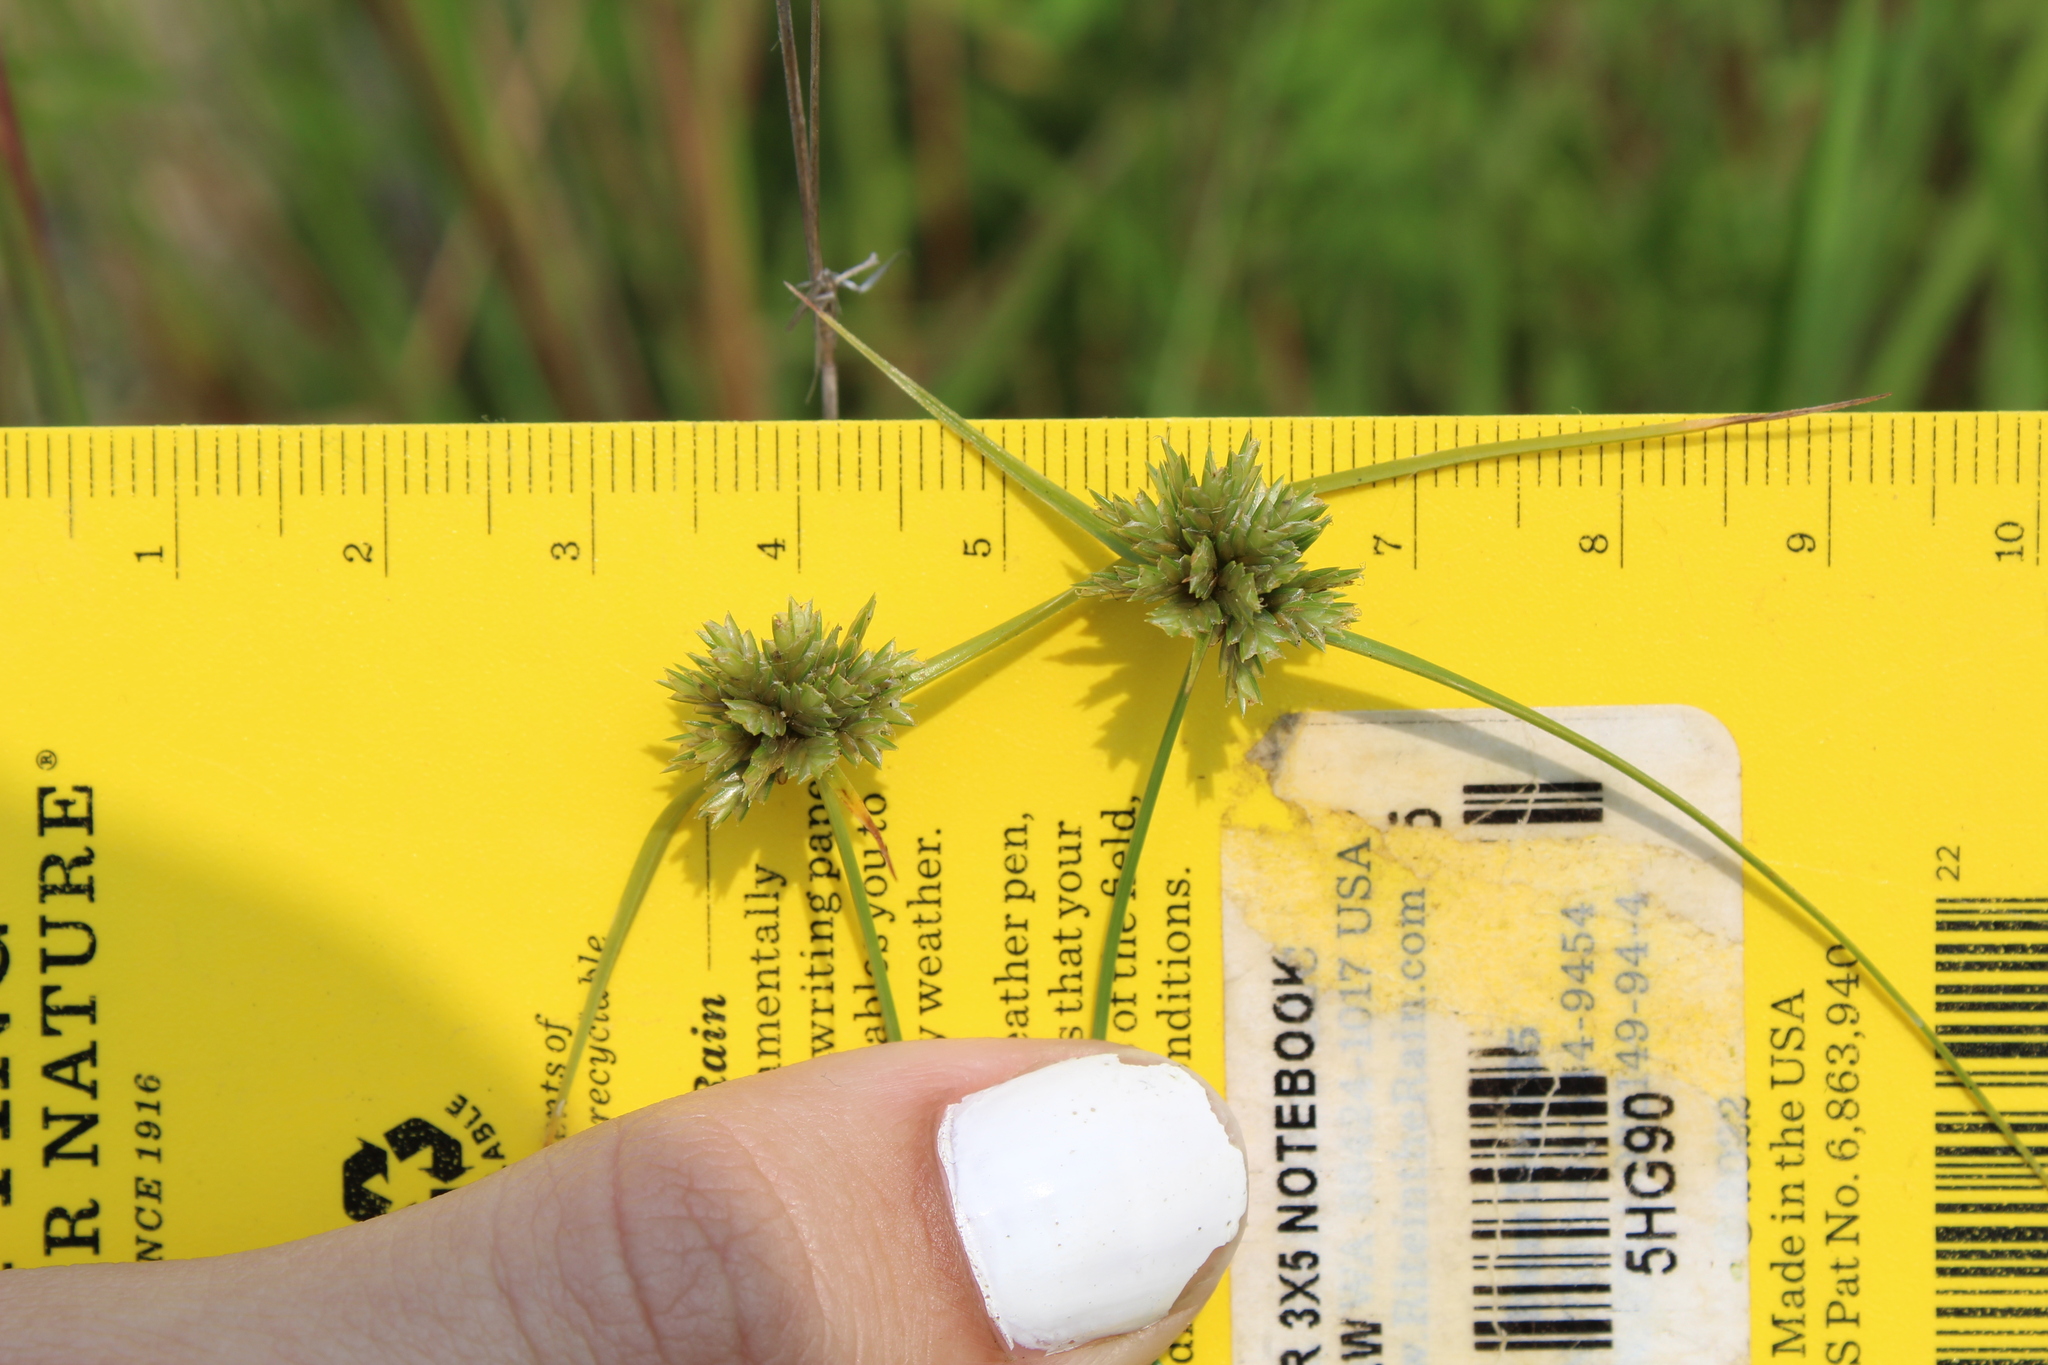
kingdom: Plantae
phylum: Tracheophyta
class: Liliopsida
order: Poales
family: Cyperaceae
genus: Cyperus
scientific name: Cyperus lupulinus
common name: Great plains flatsedge
